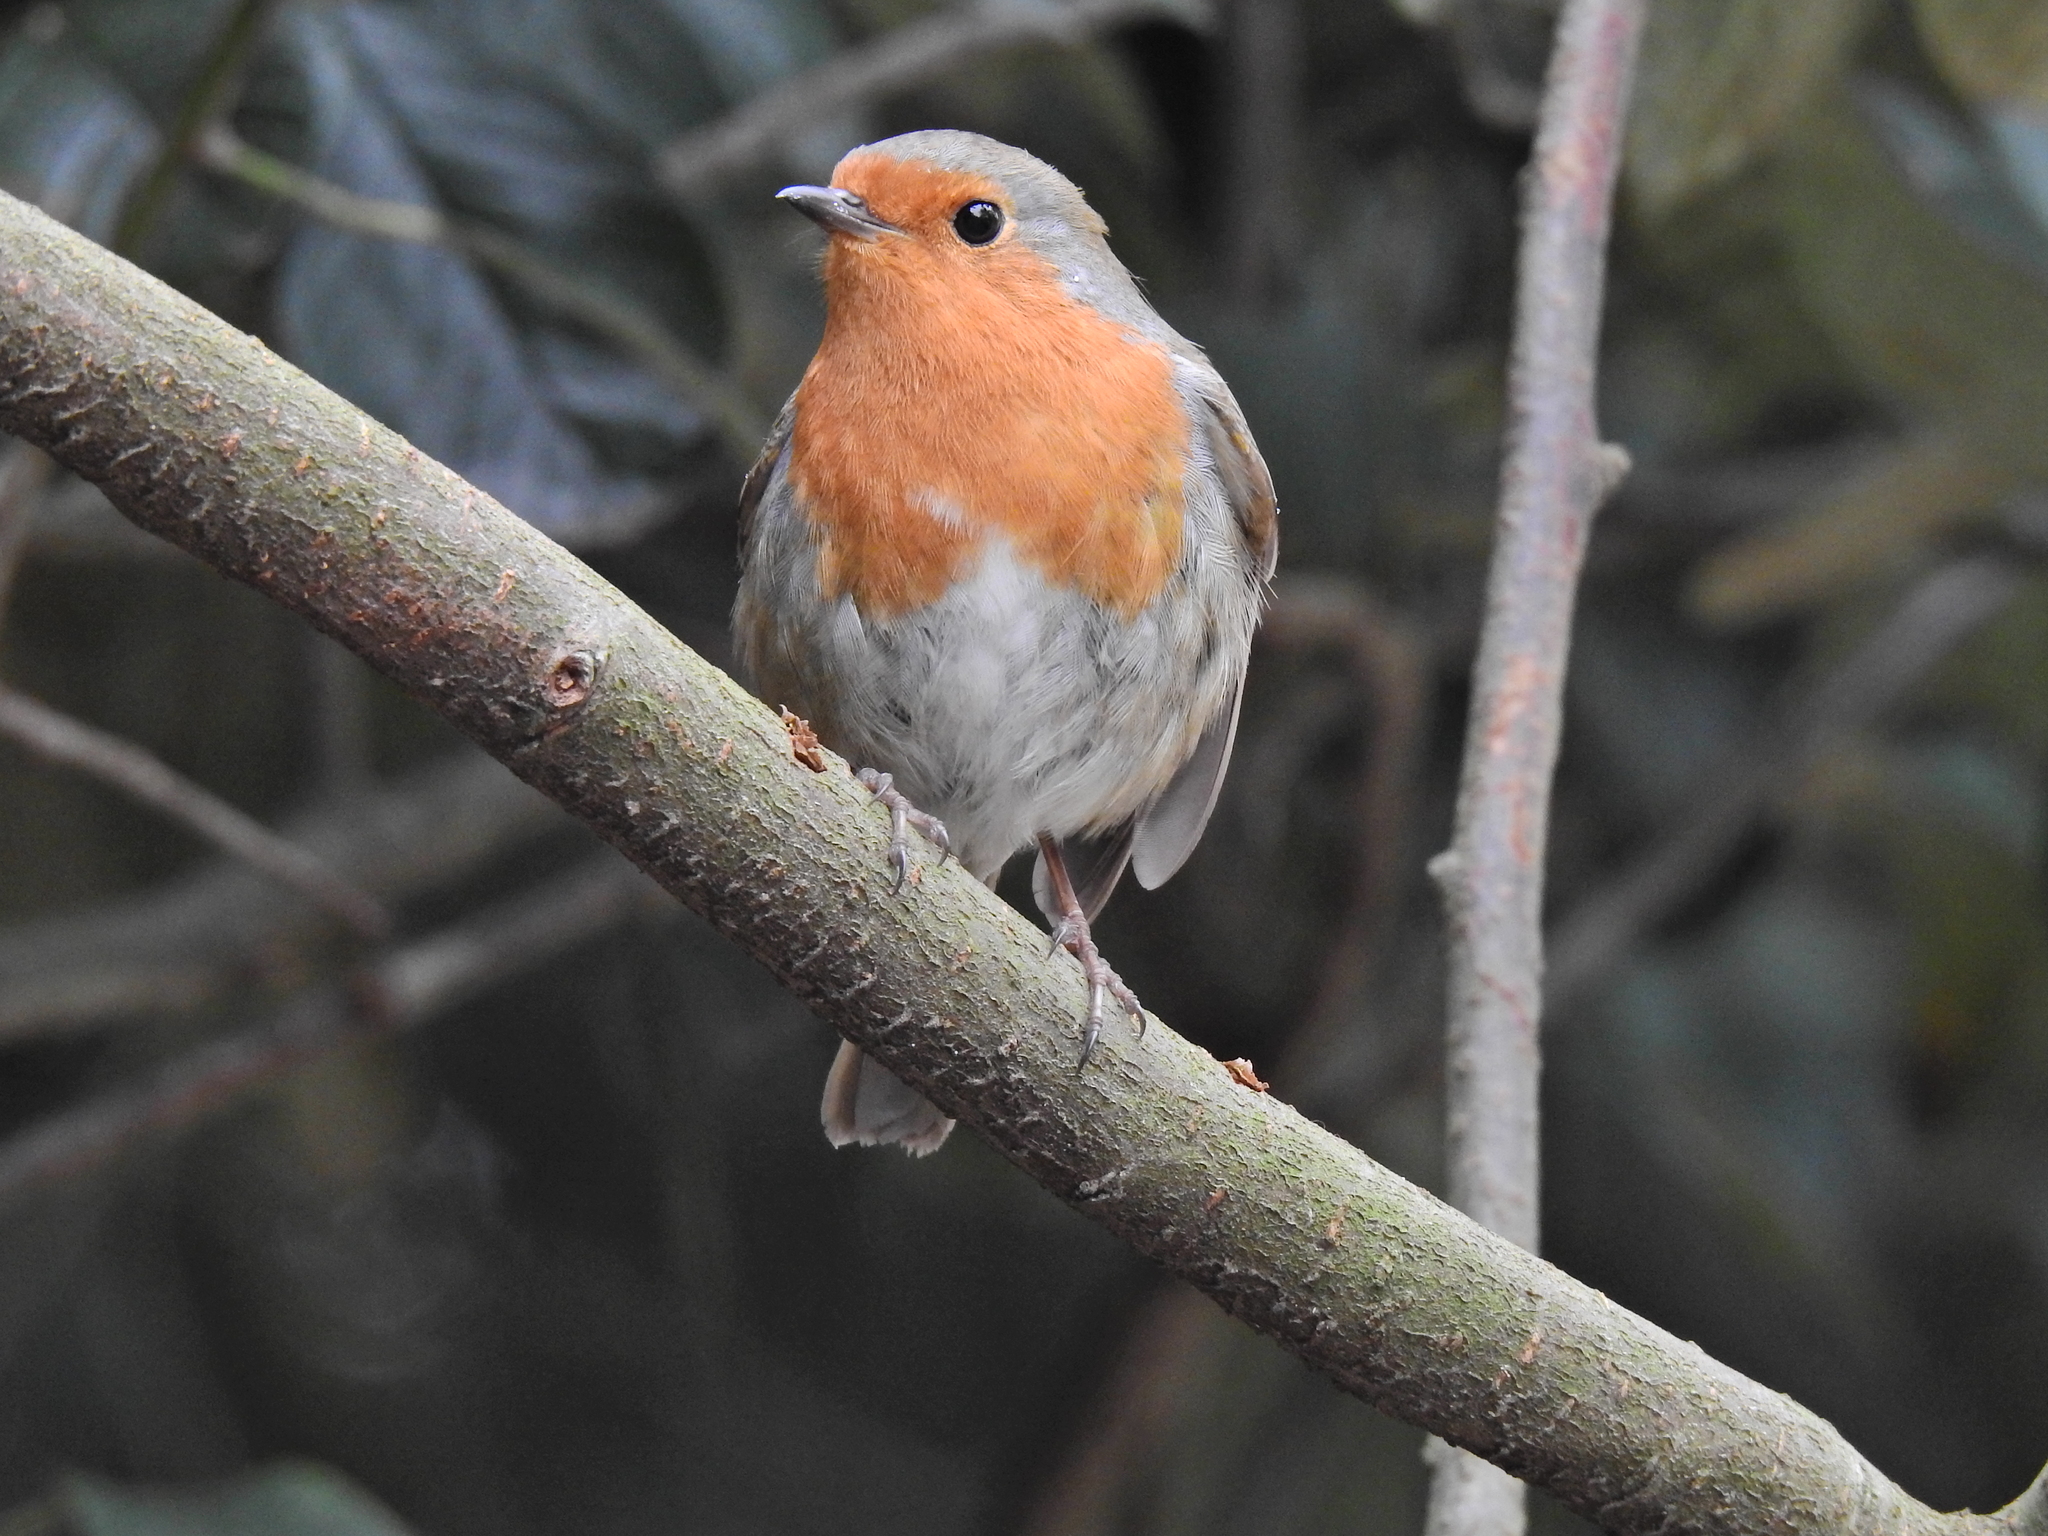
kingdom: Animalia
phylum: Chordata
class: Aves
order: Passeriformes
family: Muscicapidae
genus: Erithacus
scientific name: Erithacus rubecula
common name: European robin
